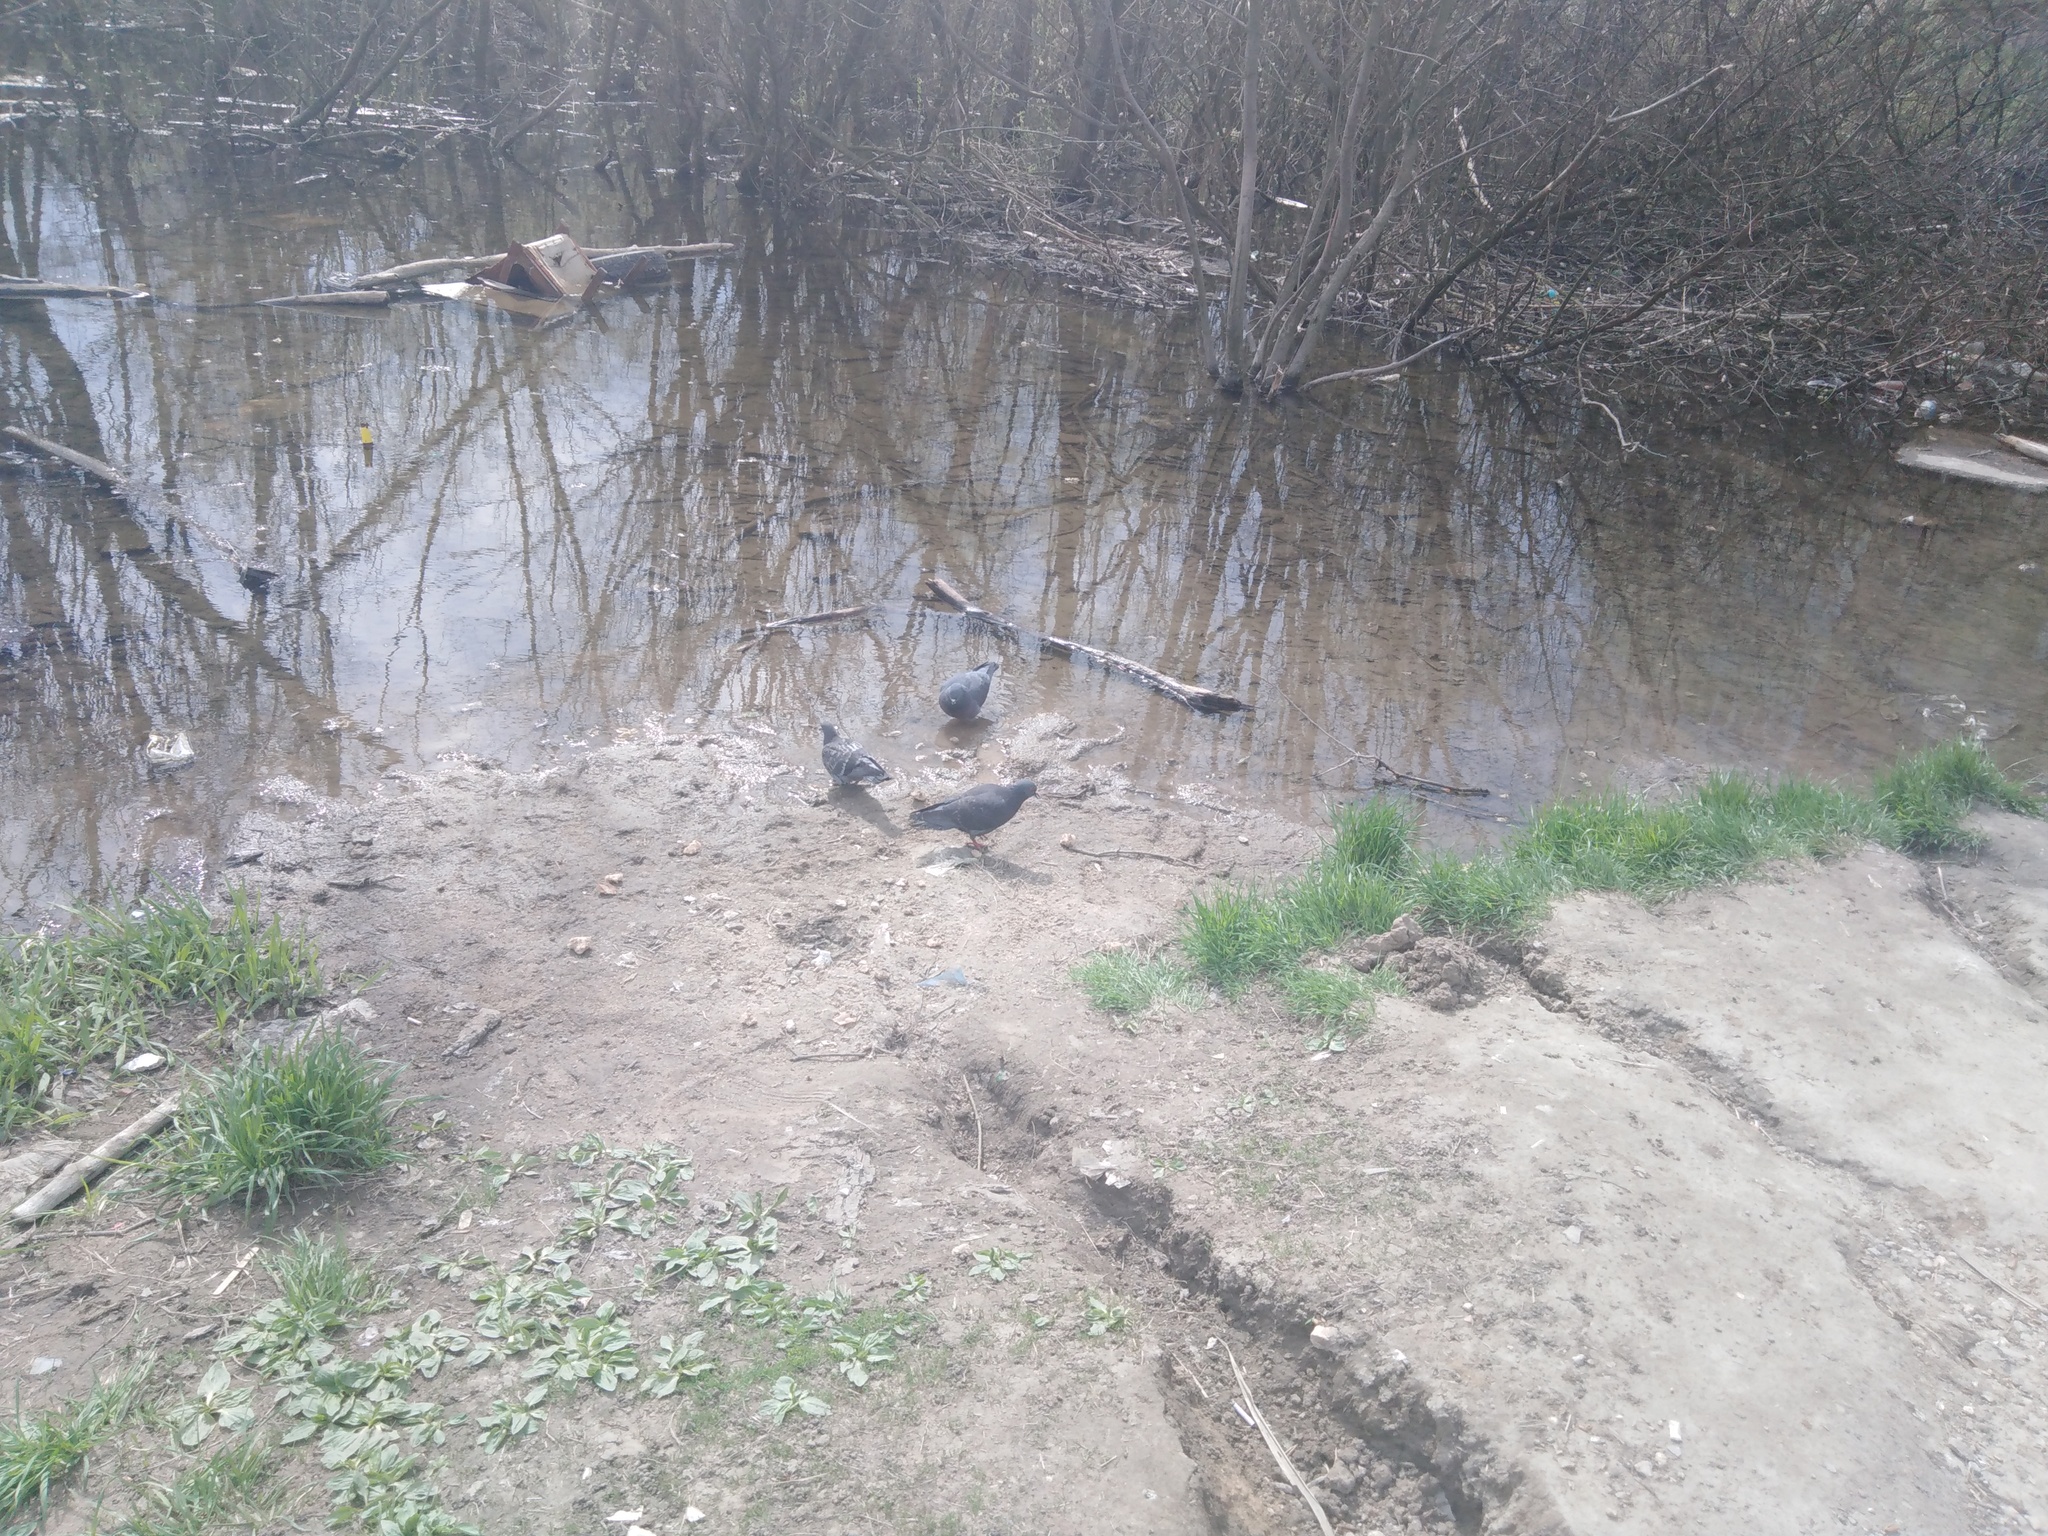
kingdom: Animalia
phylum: Chordata
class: Aves
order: Columbiformes
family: Columbidae
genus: Columba
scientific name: Columba livia
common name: Rock pigeon
